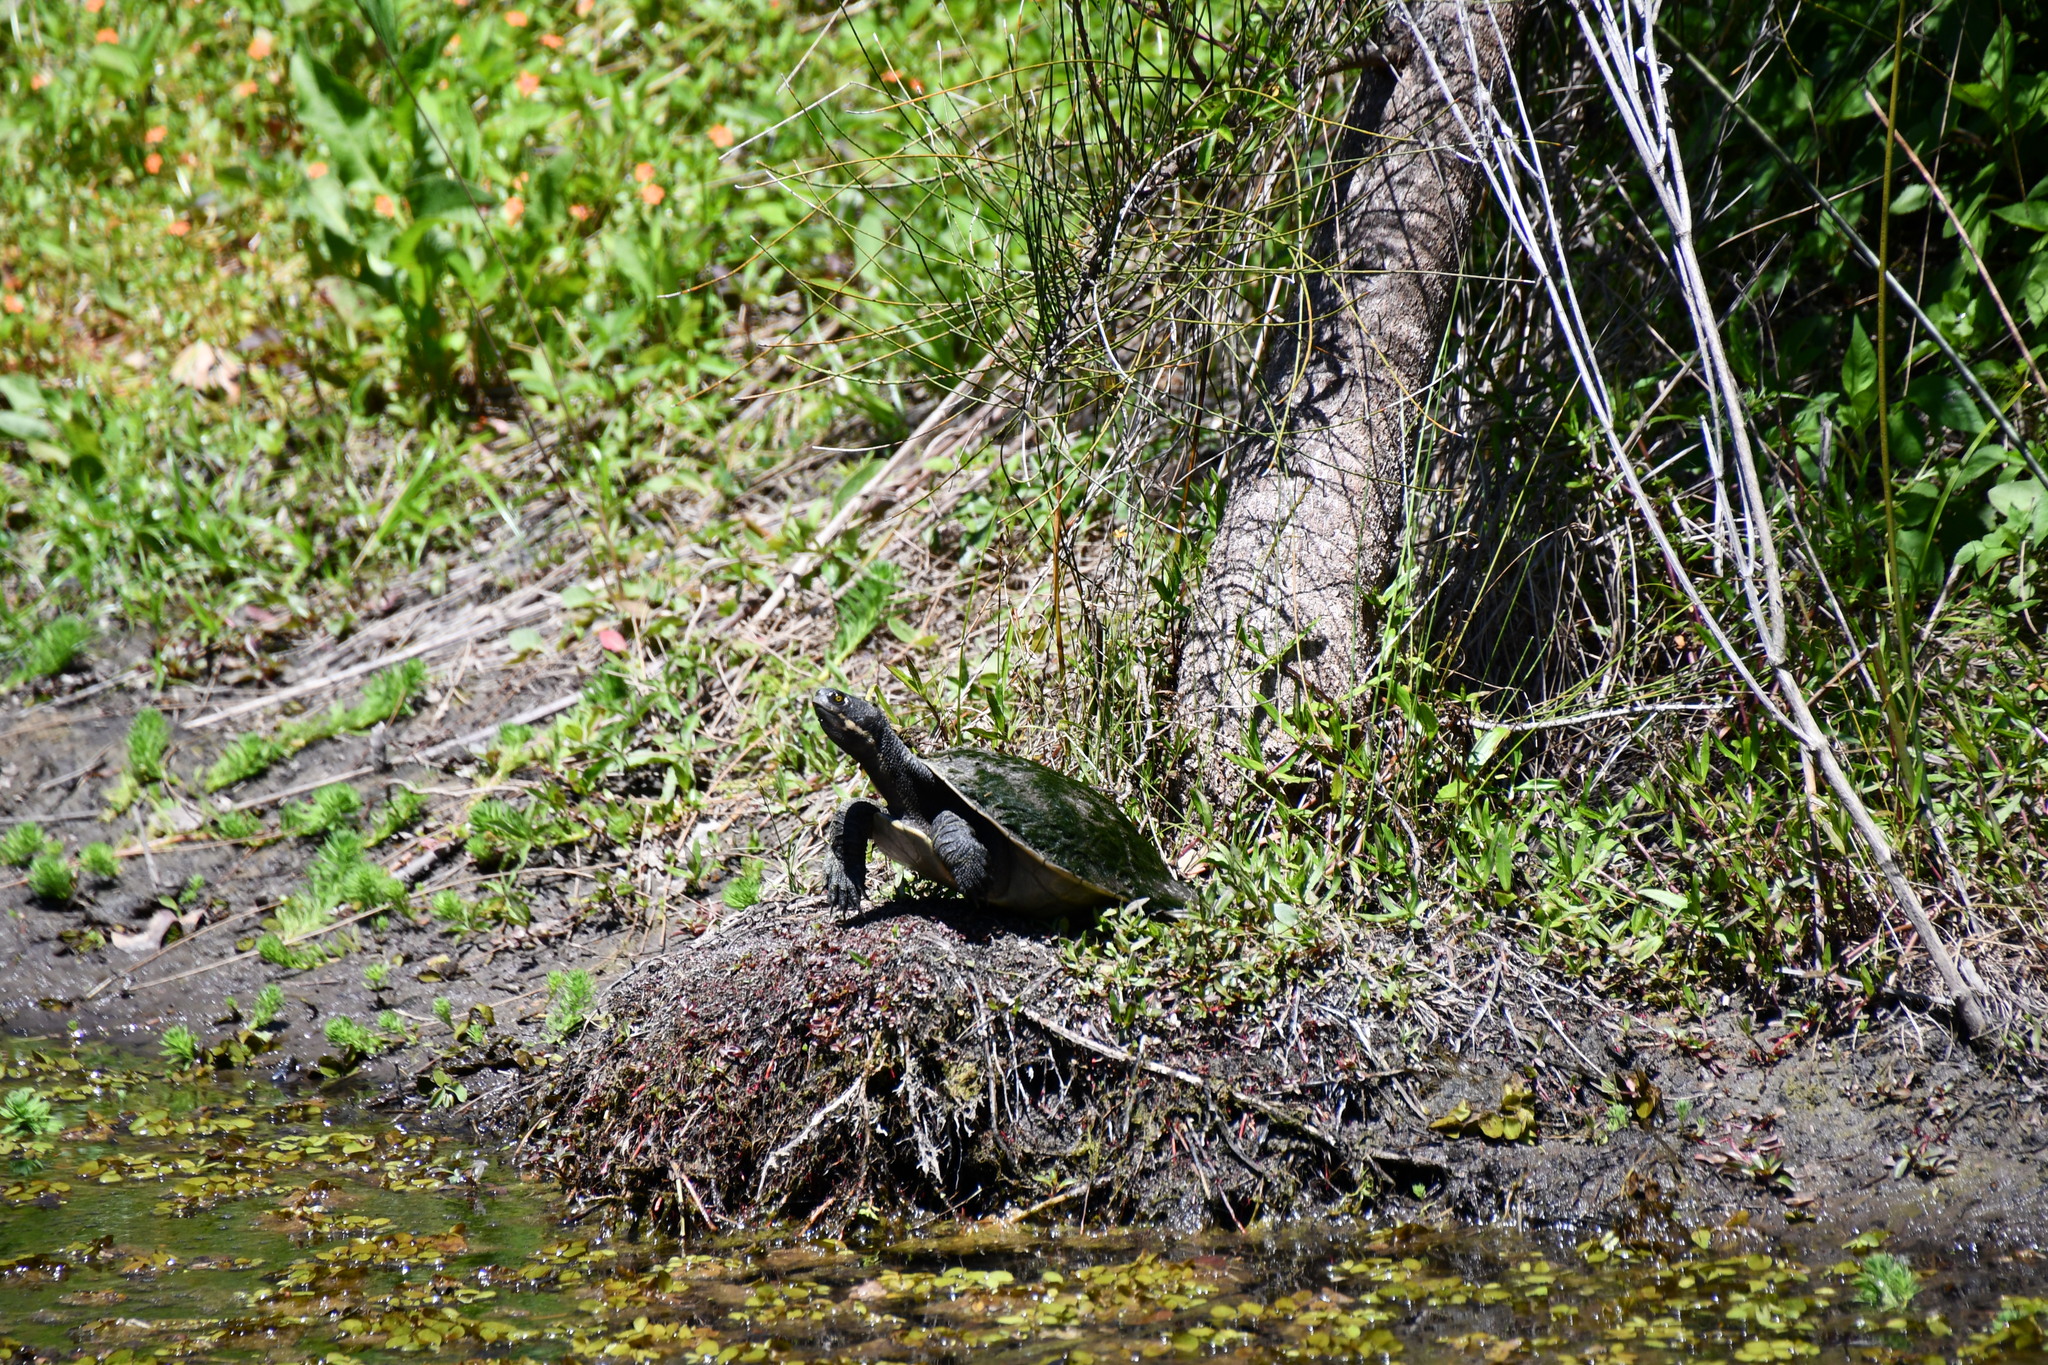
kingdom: Animalia
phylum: Chordata
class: Testudines
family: Chelidae
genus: Emydura
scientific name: Emydura macquarii
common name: Murray river turtle
